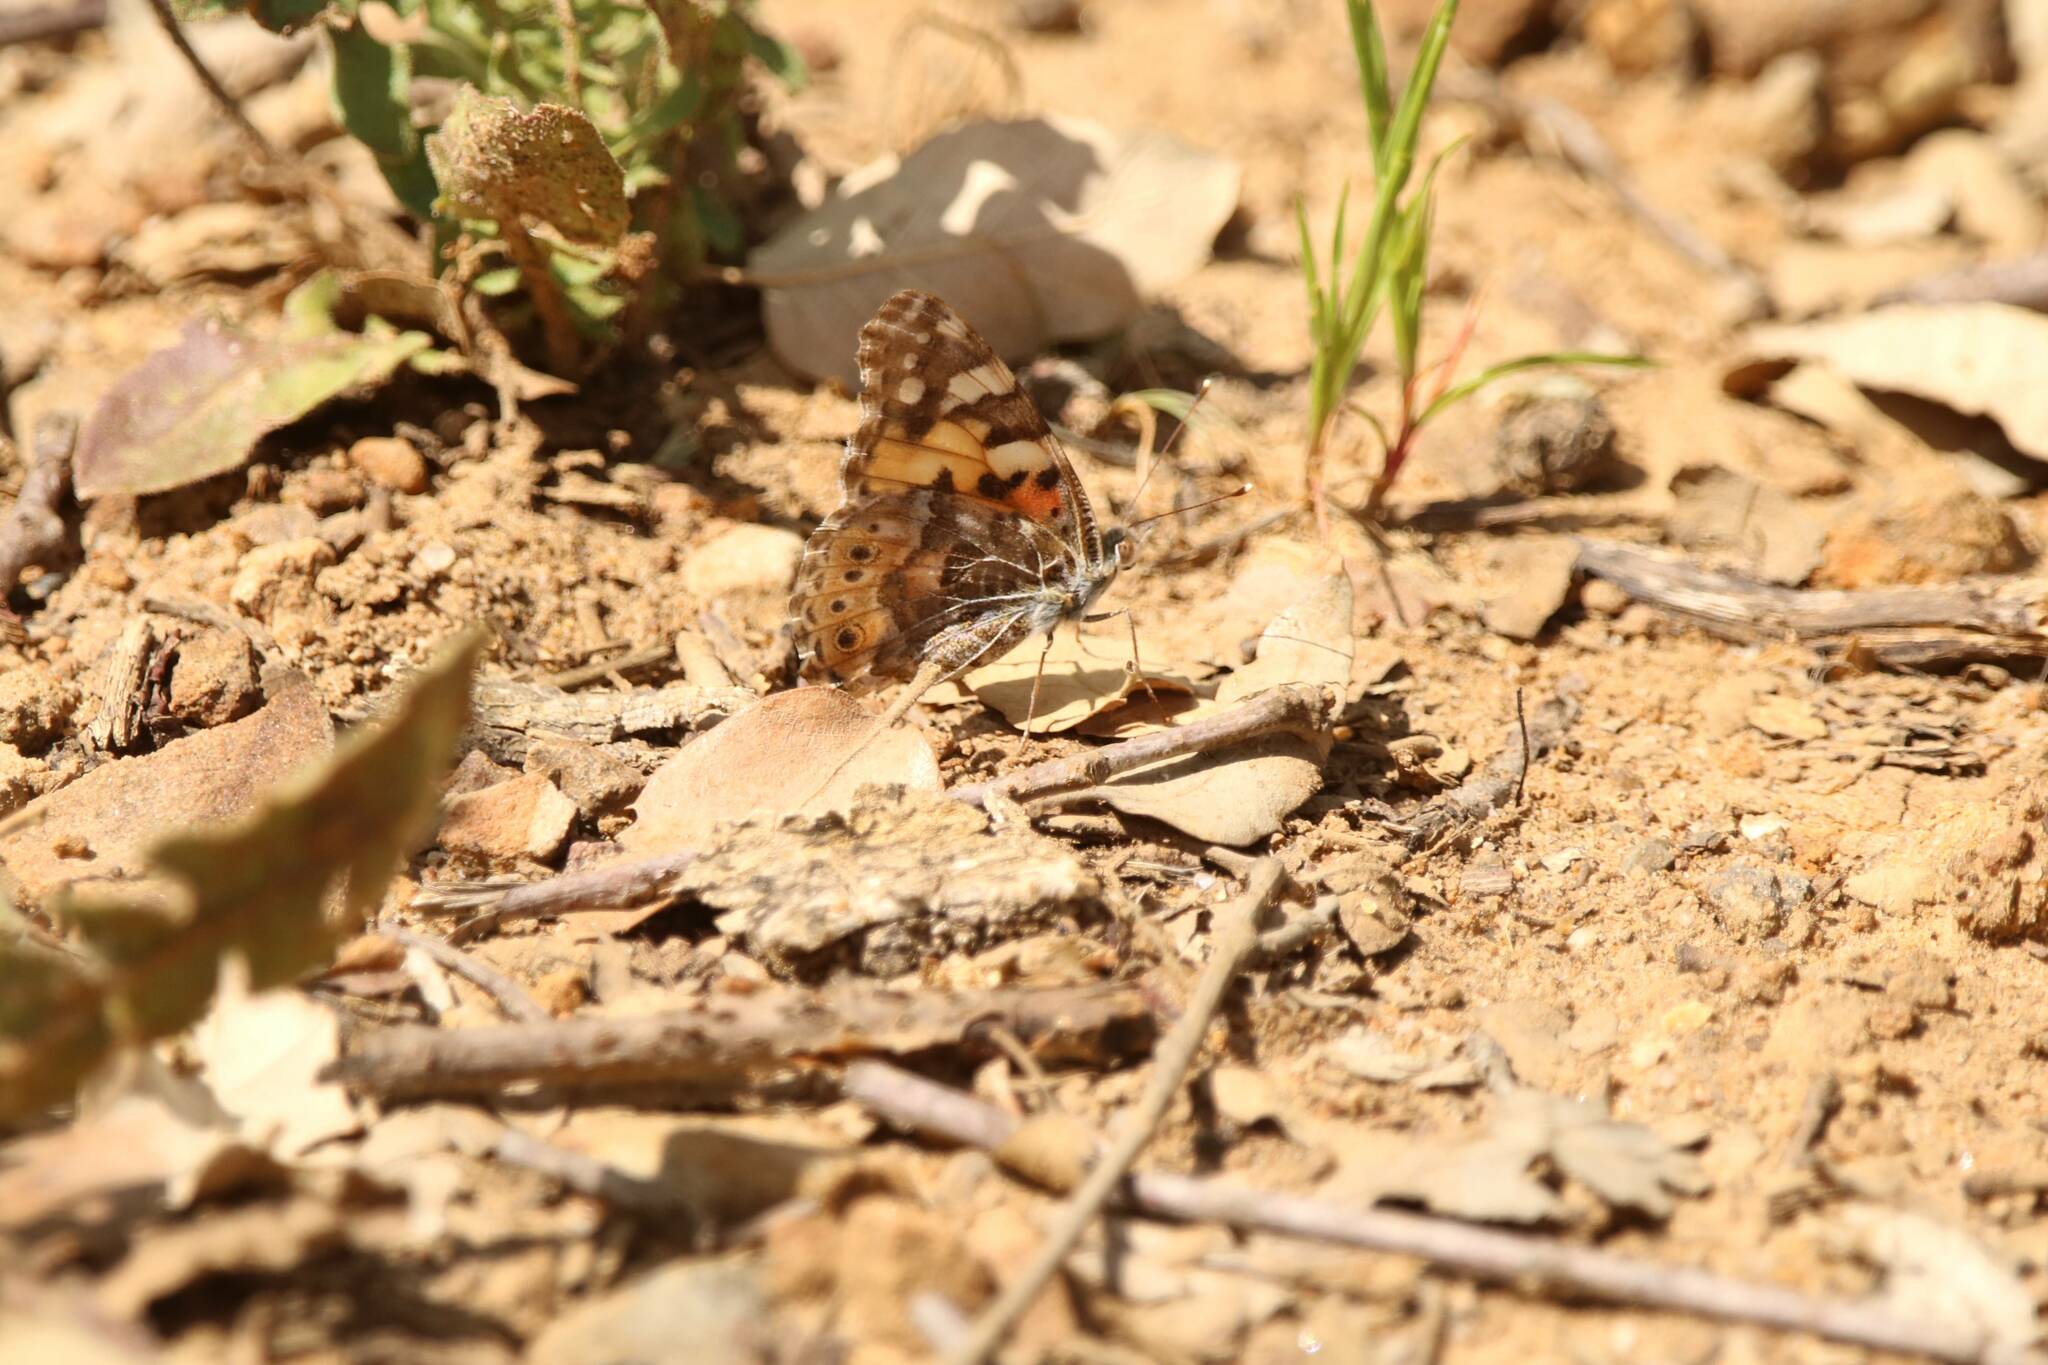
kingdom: Animalia
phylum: Arthropoda
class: Insecta
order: Lepidoptera
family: Nymphalidae
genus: Vanessa
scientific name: Vanessa cardui
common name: Painted lady
